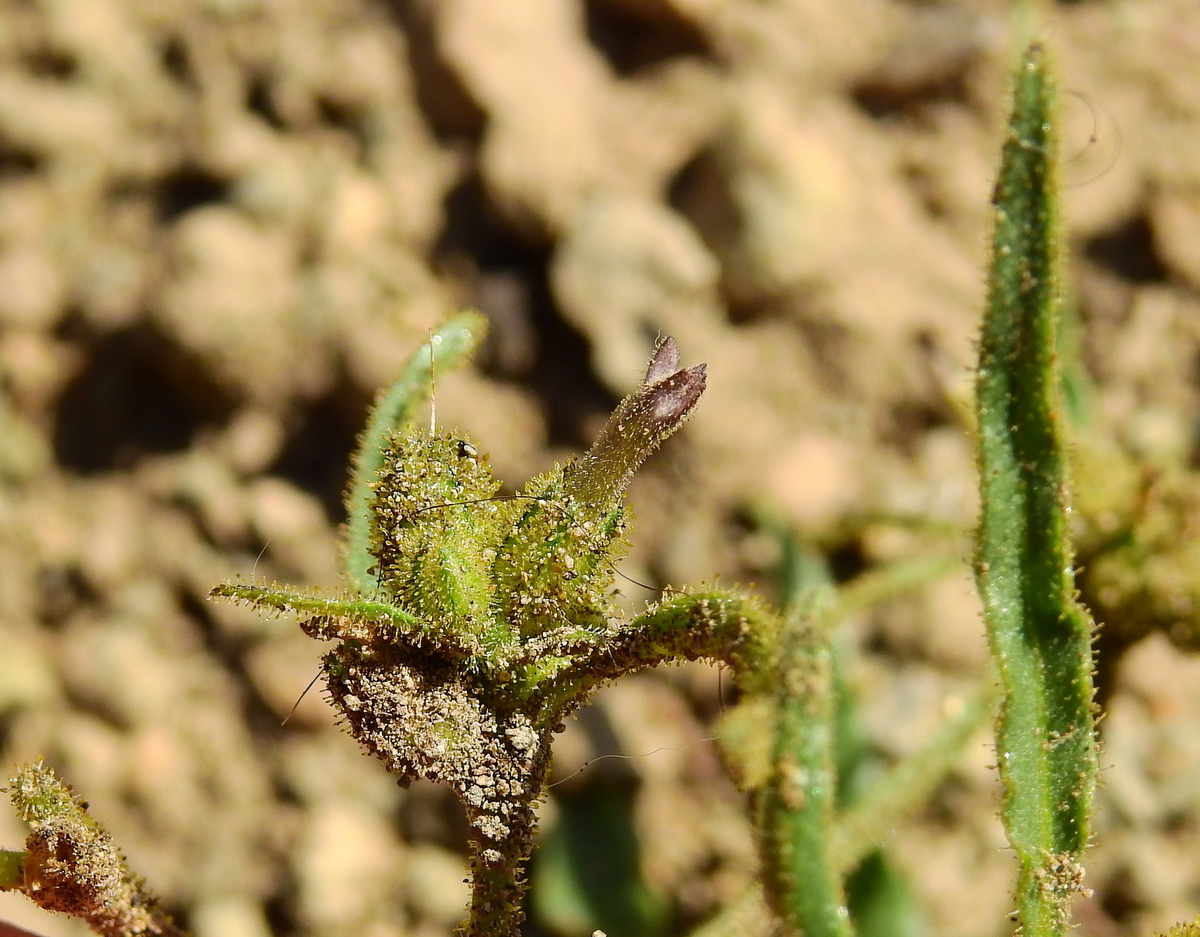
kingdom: Plantae
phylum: Tracheophyta
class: Magnoliopsida
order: Solanales
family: Solanaceae
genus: Nicotiana
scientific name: Nicotiana corymbosa
